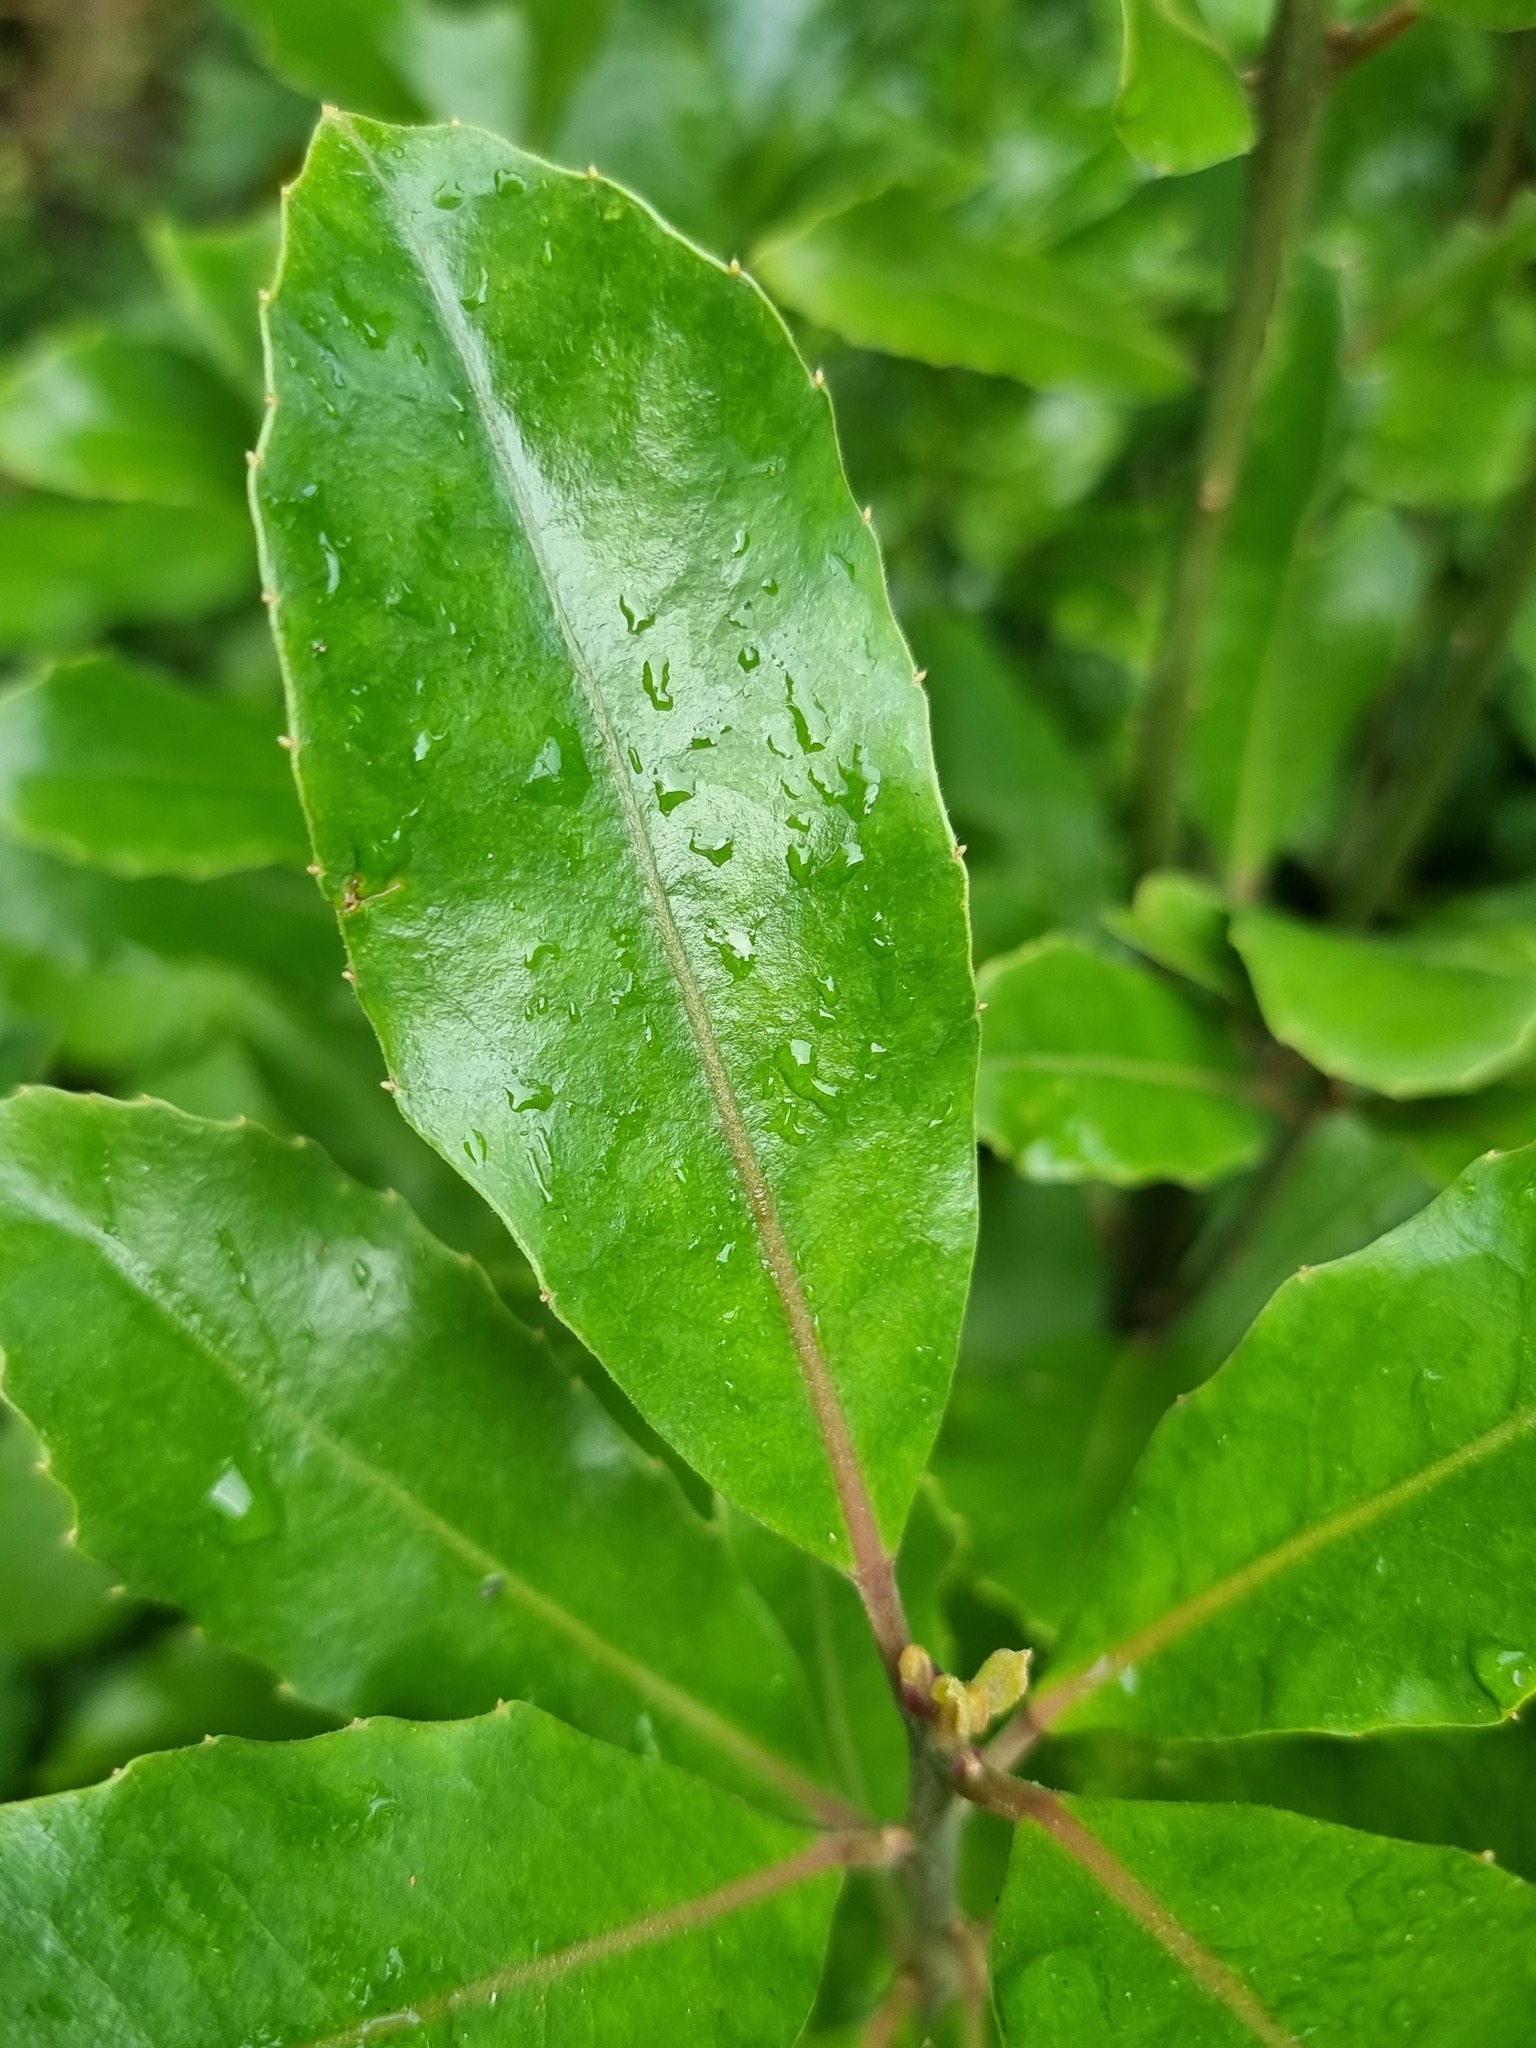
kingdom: Plantae
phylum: Tracheophyta
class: Magnoliopsida
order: Laurales
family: Monimiaceae
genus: Hedycarya
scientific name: Hedycarya arborea
